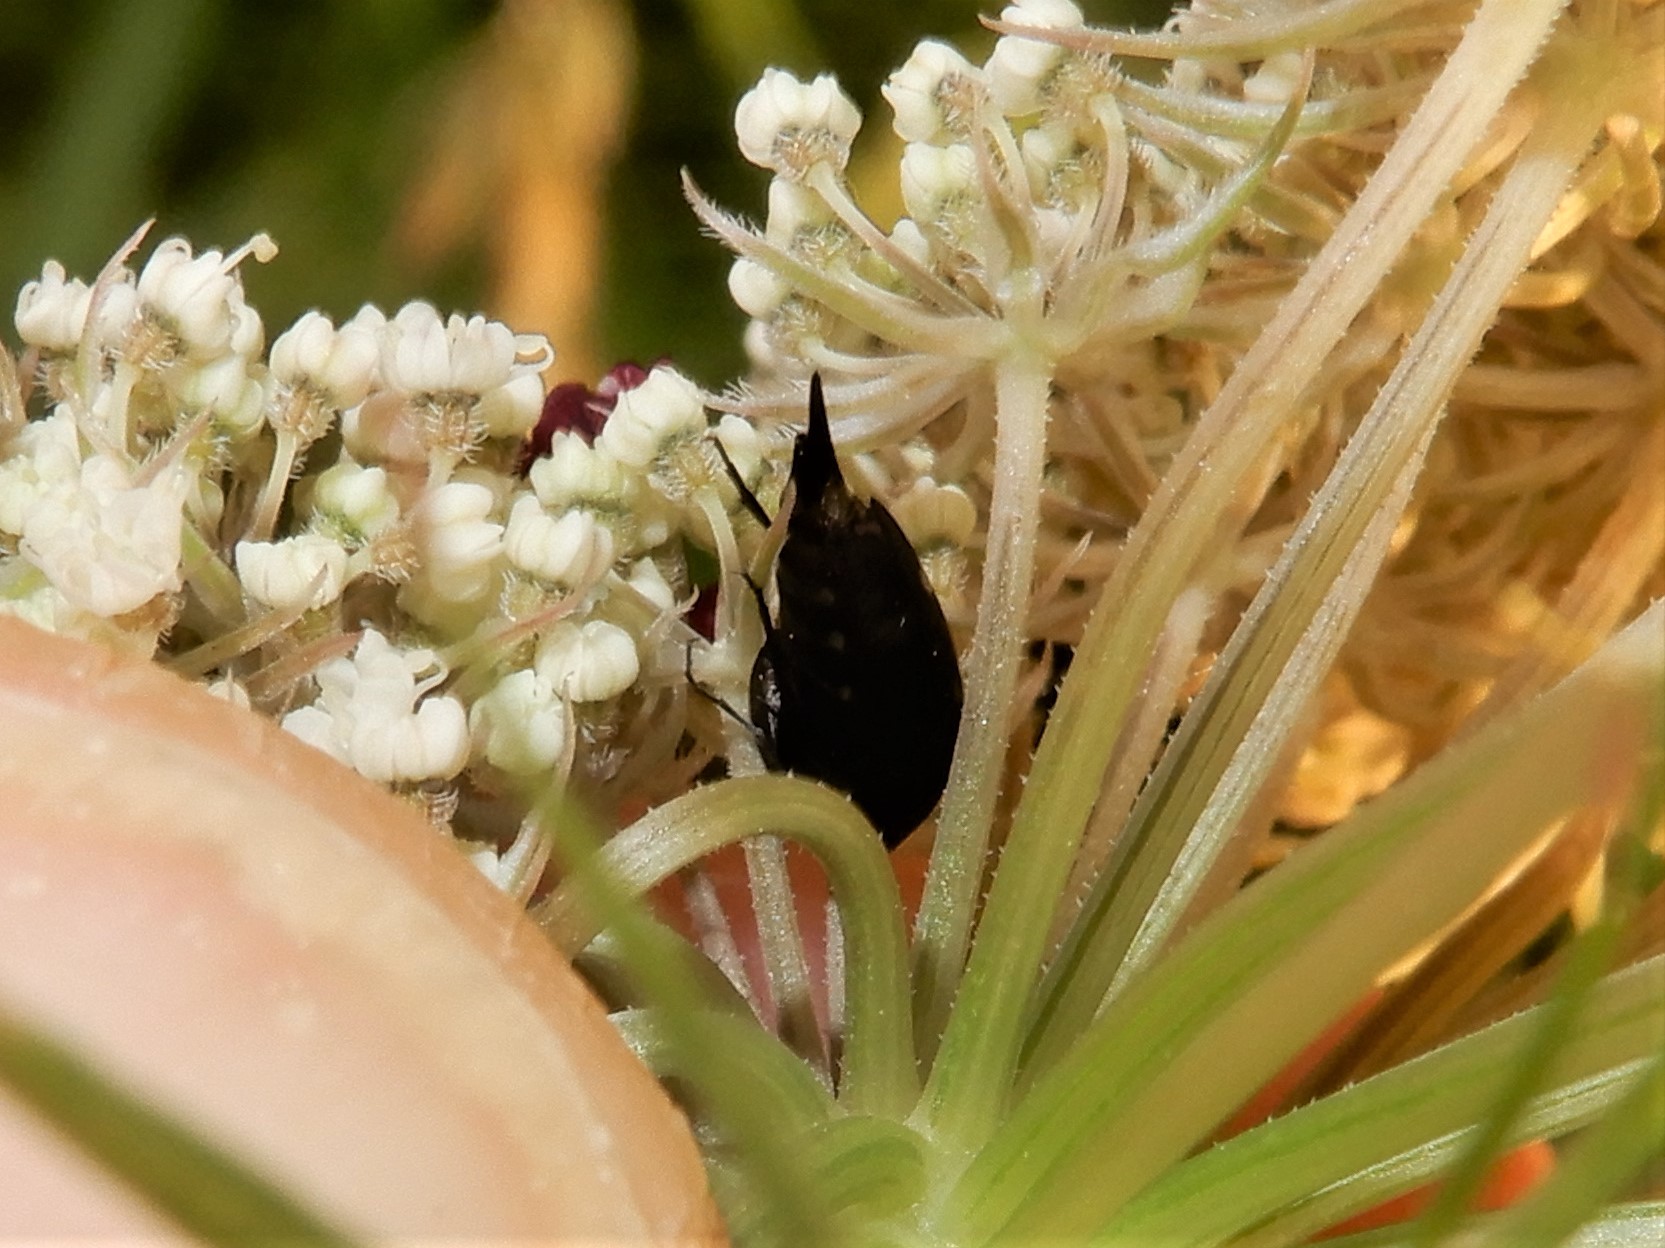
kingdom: Animalia
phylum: Arthropoda
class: Insecta
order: Coleoptera
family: Mordellidae
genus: Mordella
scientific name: Mordella
